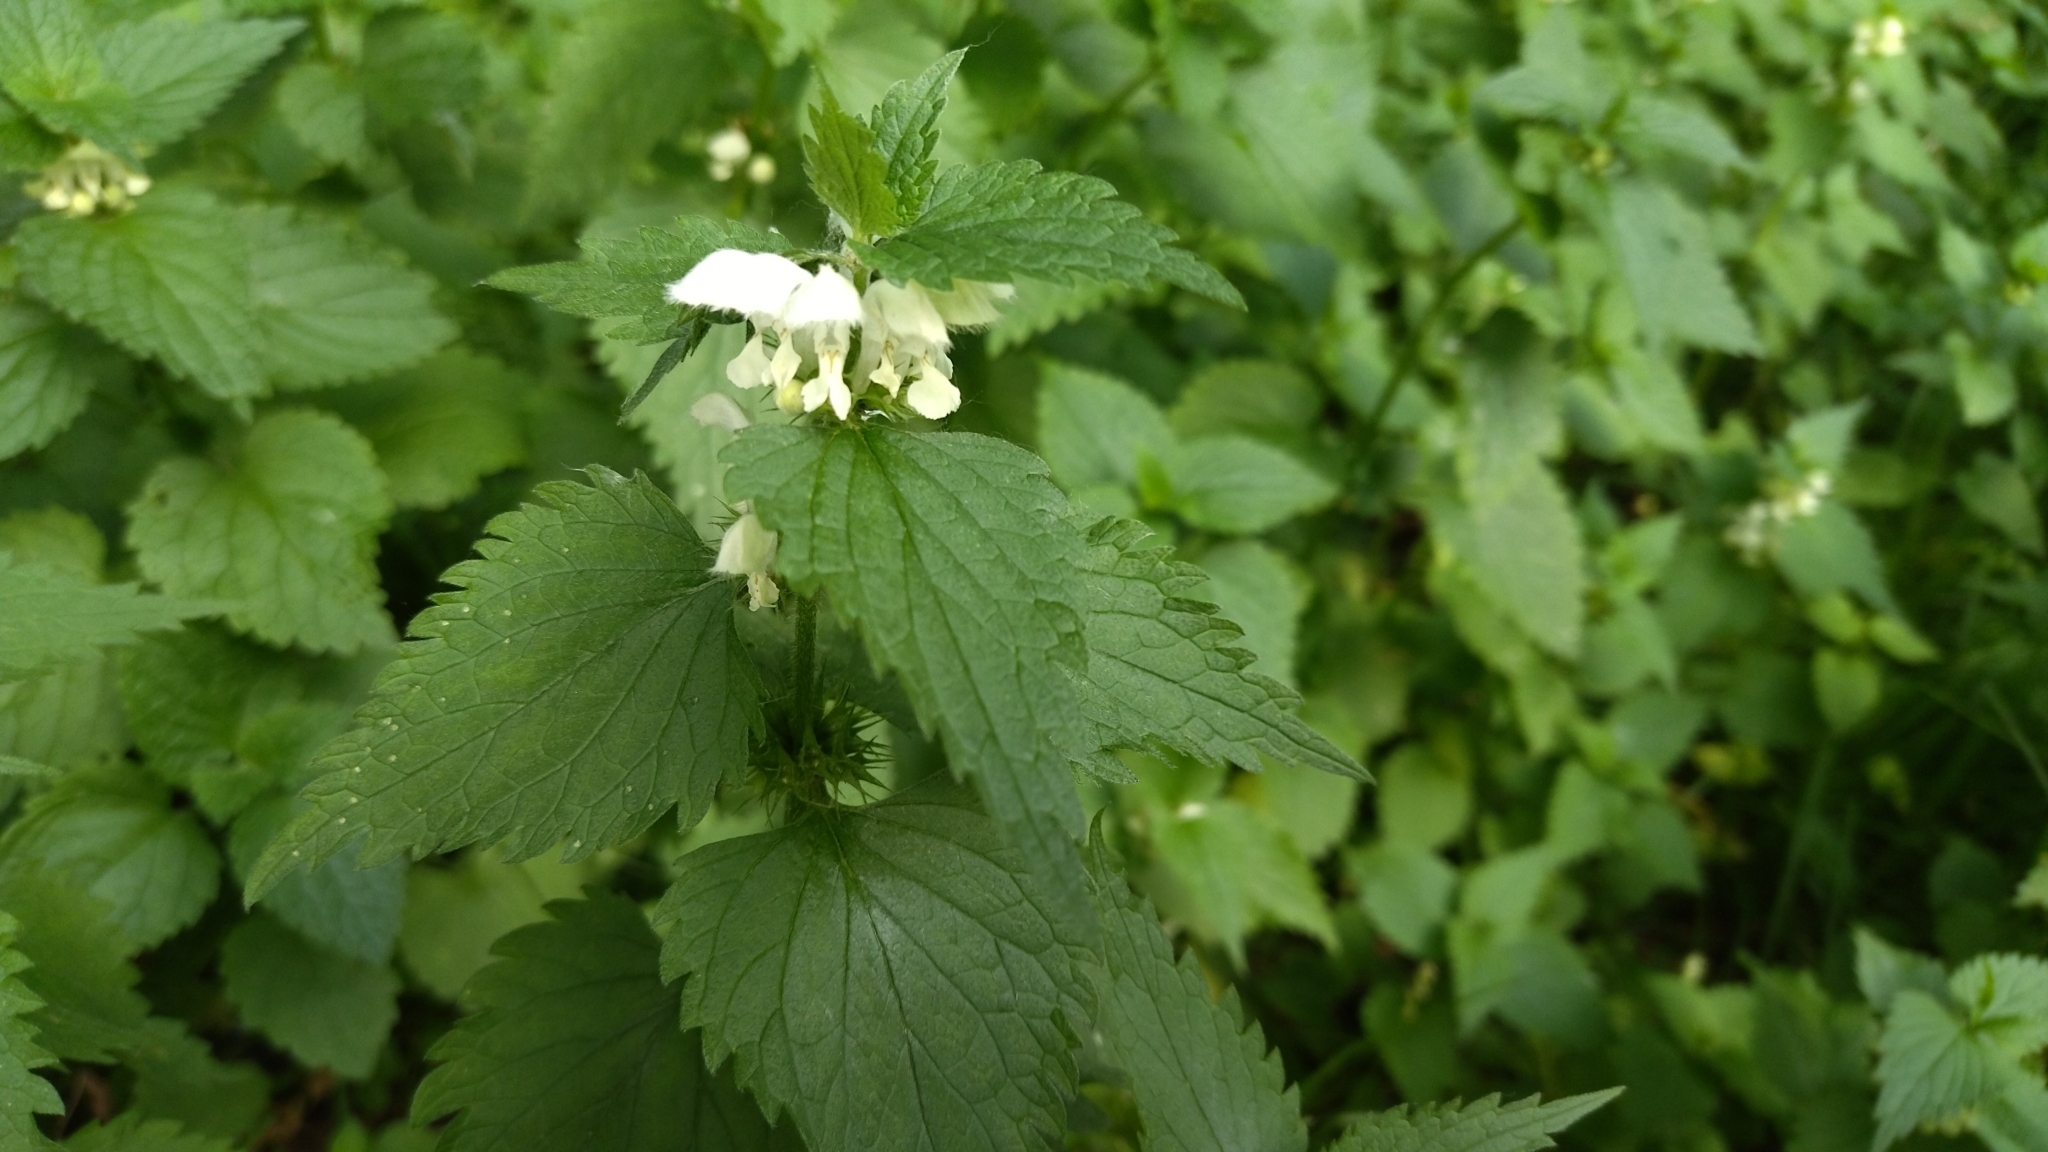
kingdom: Plantae
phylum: Tracheophyta
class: Magnoliopsida
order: Lamiales
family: Lamiaceae
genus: Lamium
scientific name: Lamium album
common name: White dead-nettle
